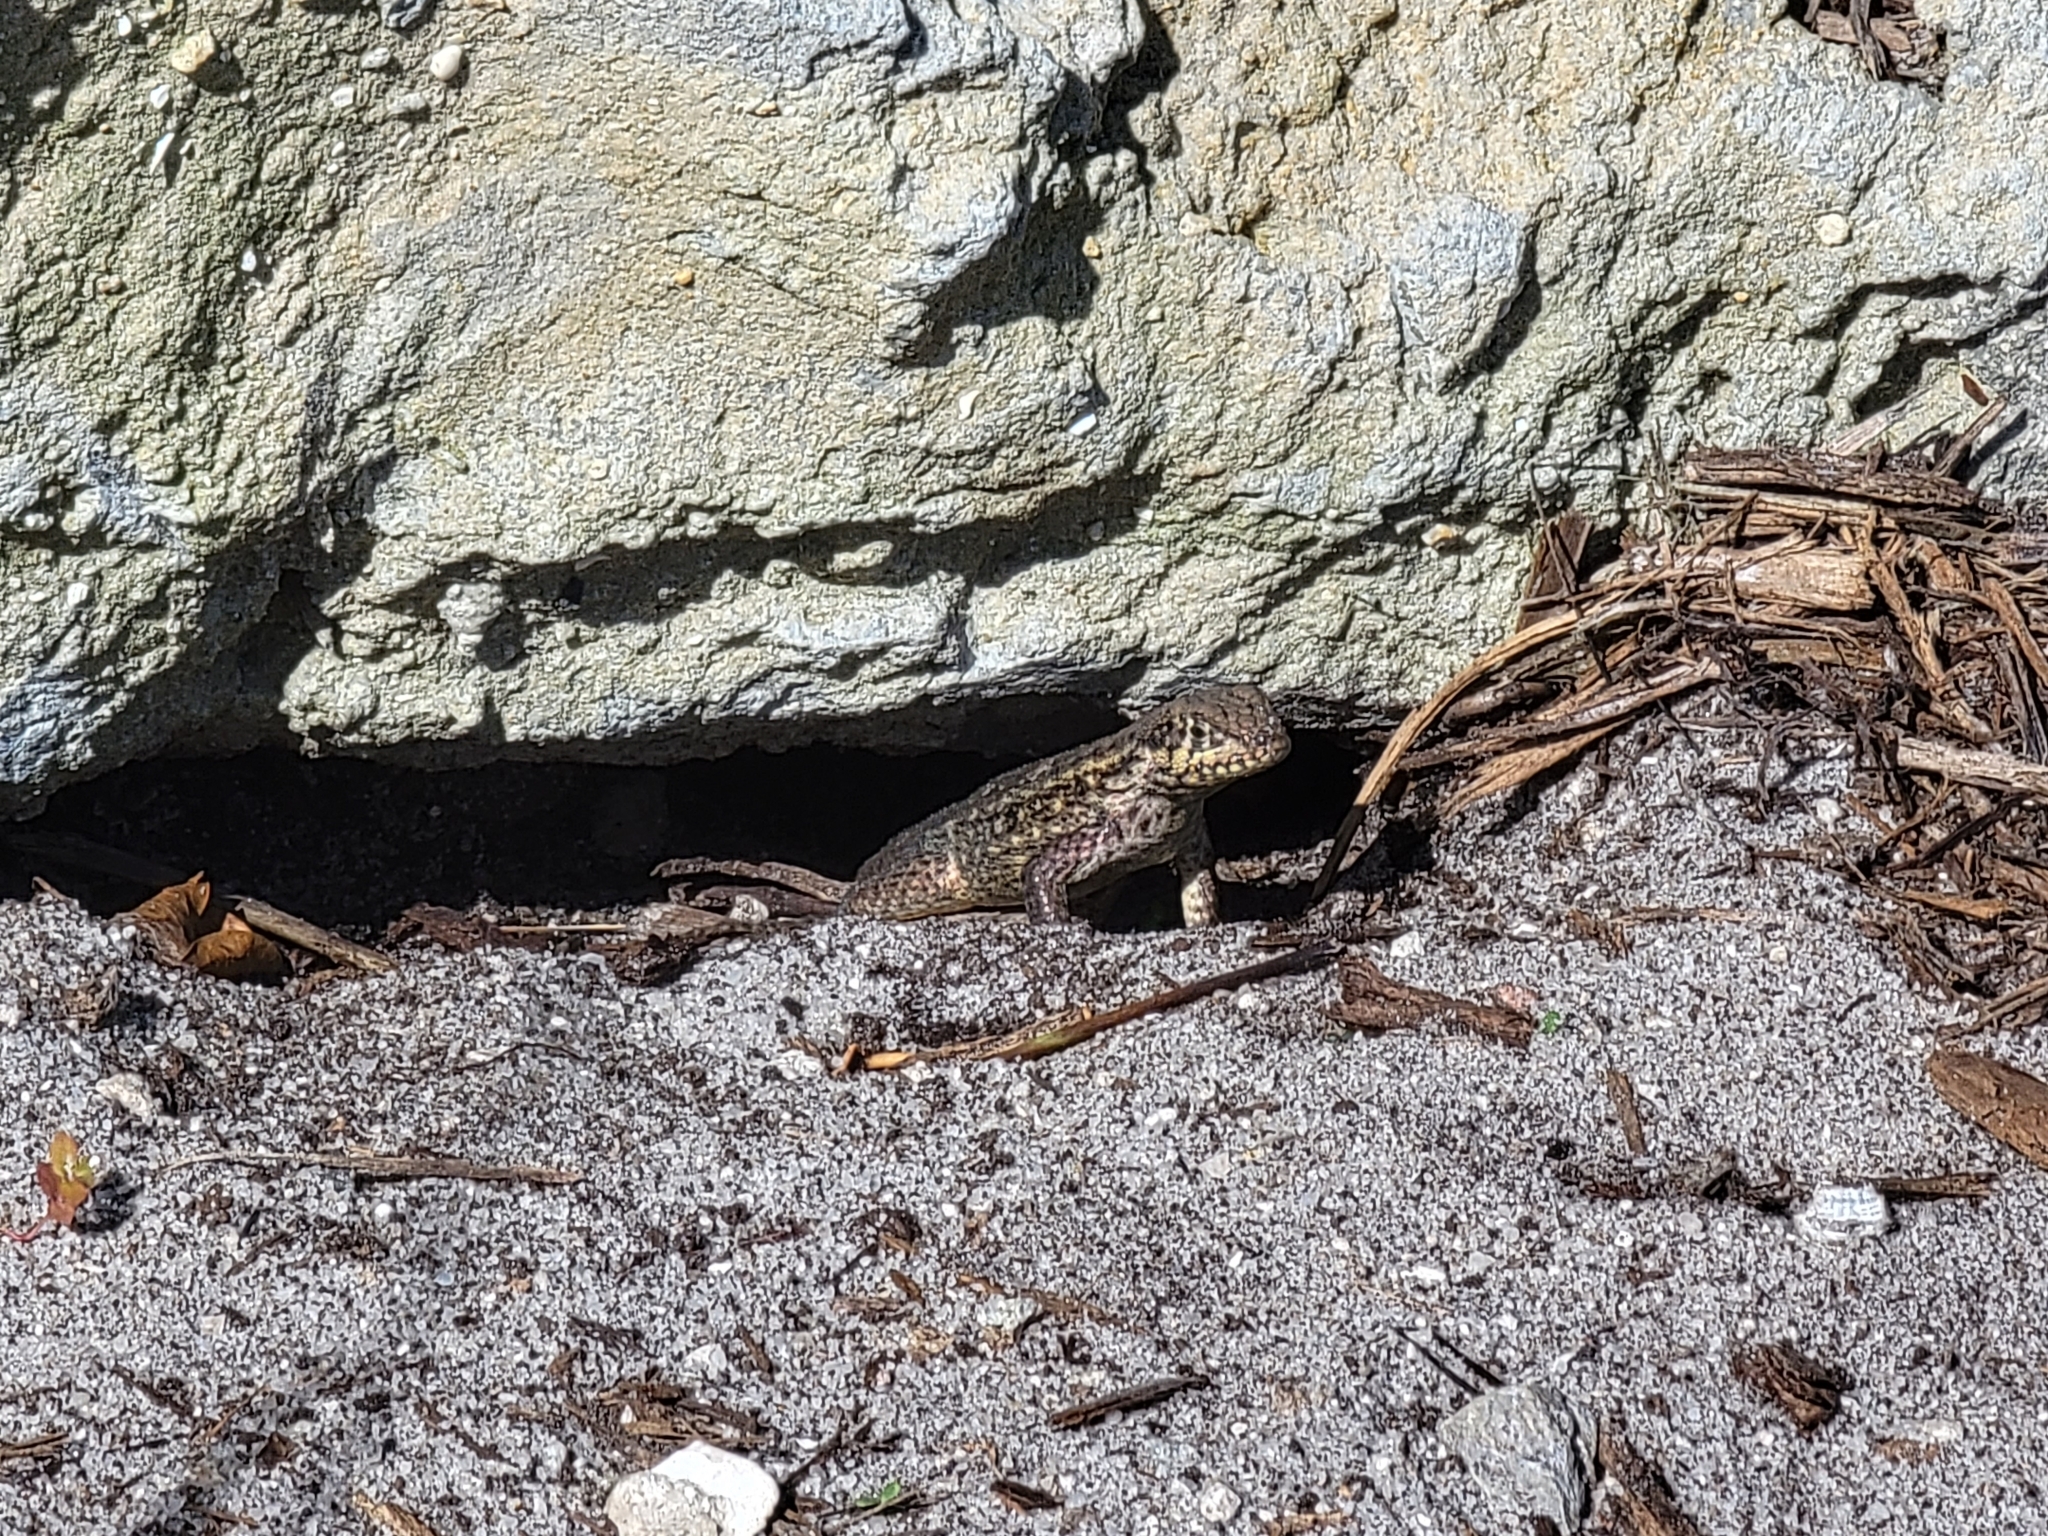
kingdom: Animalia
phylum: Chordata
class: Squamata
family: Leiocephalidae
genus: Leiocephalus
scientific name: Leiocephalus carinatus
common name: Northern curly-tailed lizard
